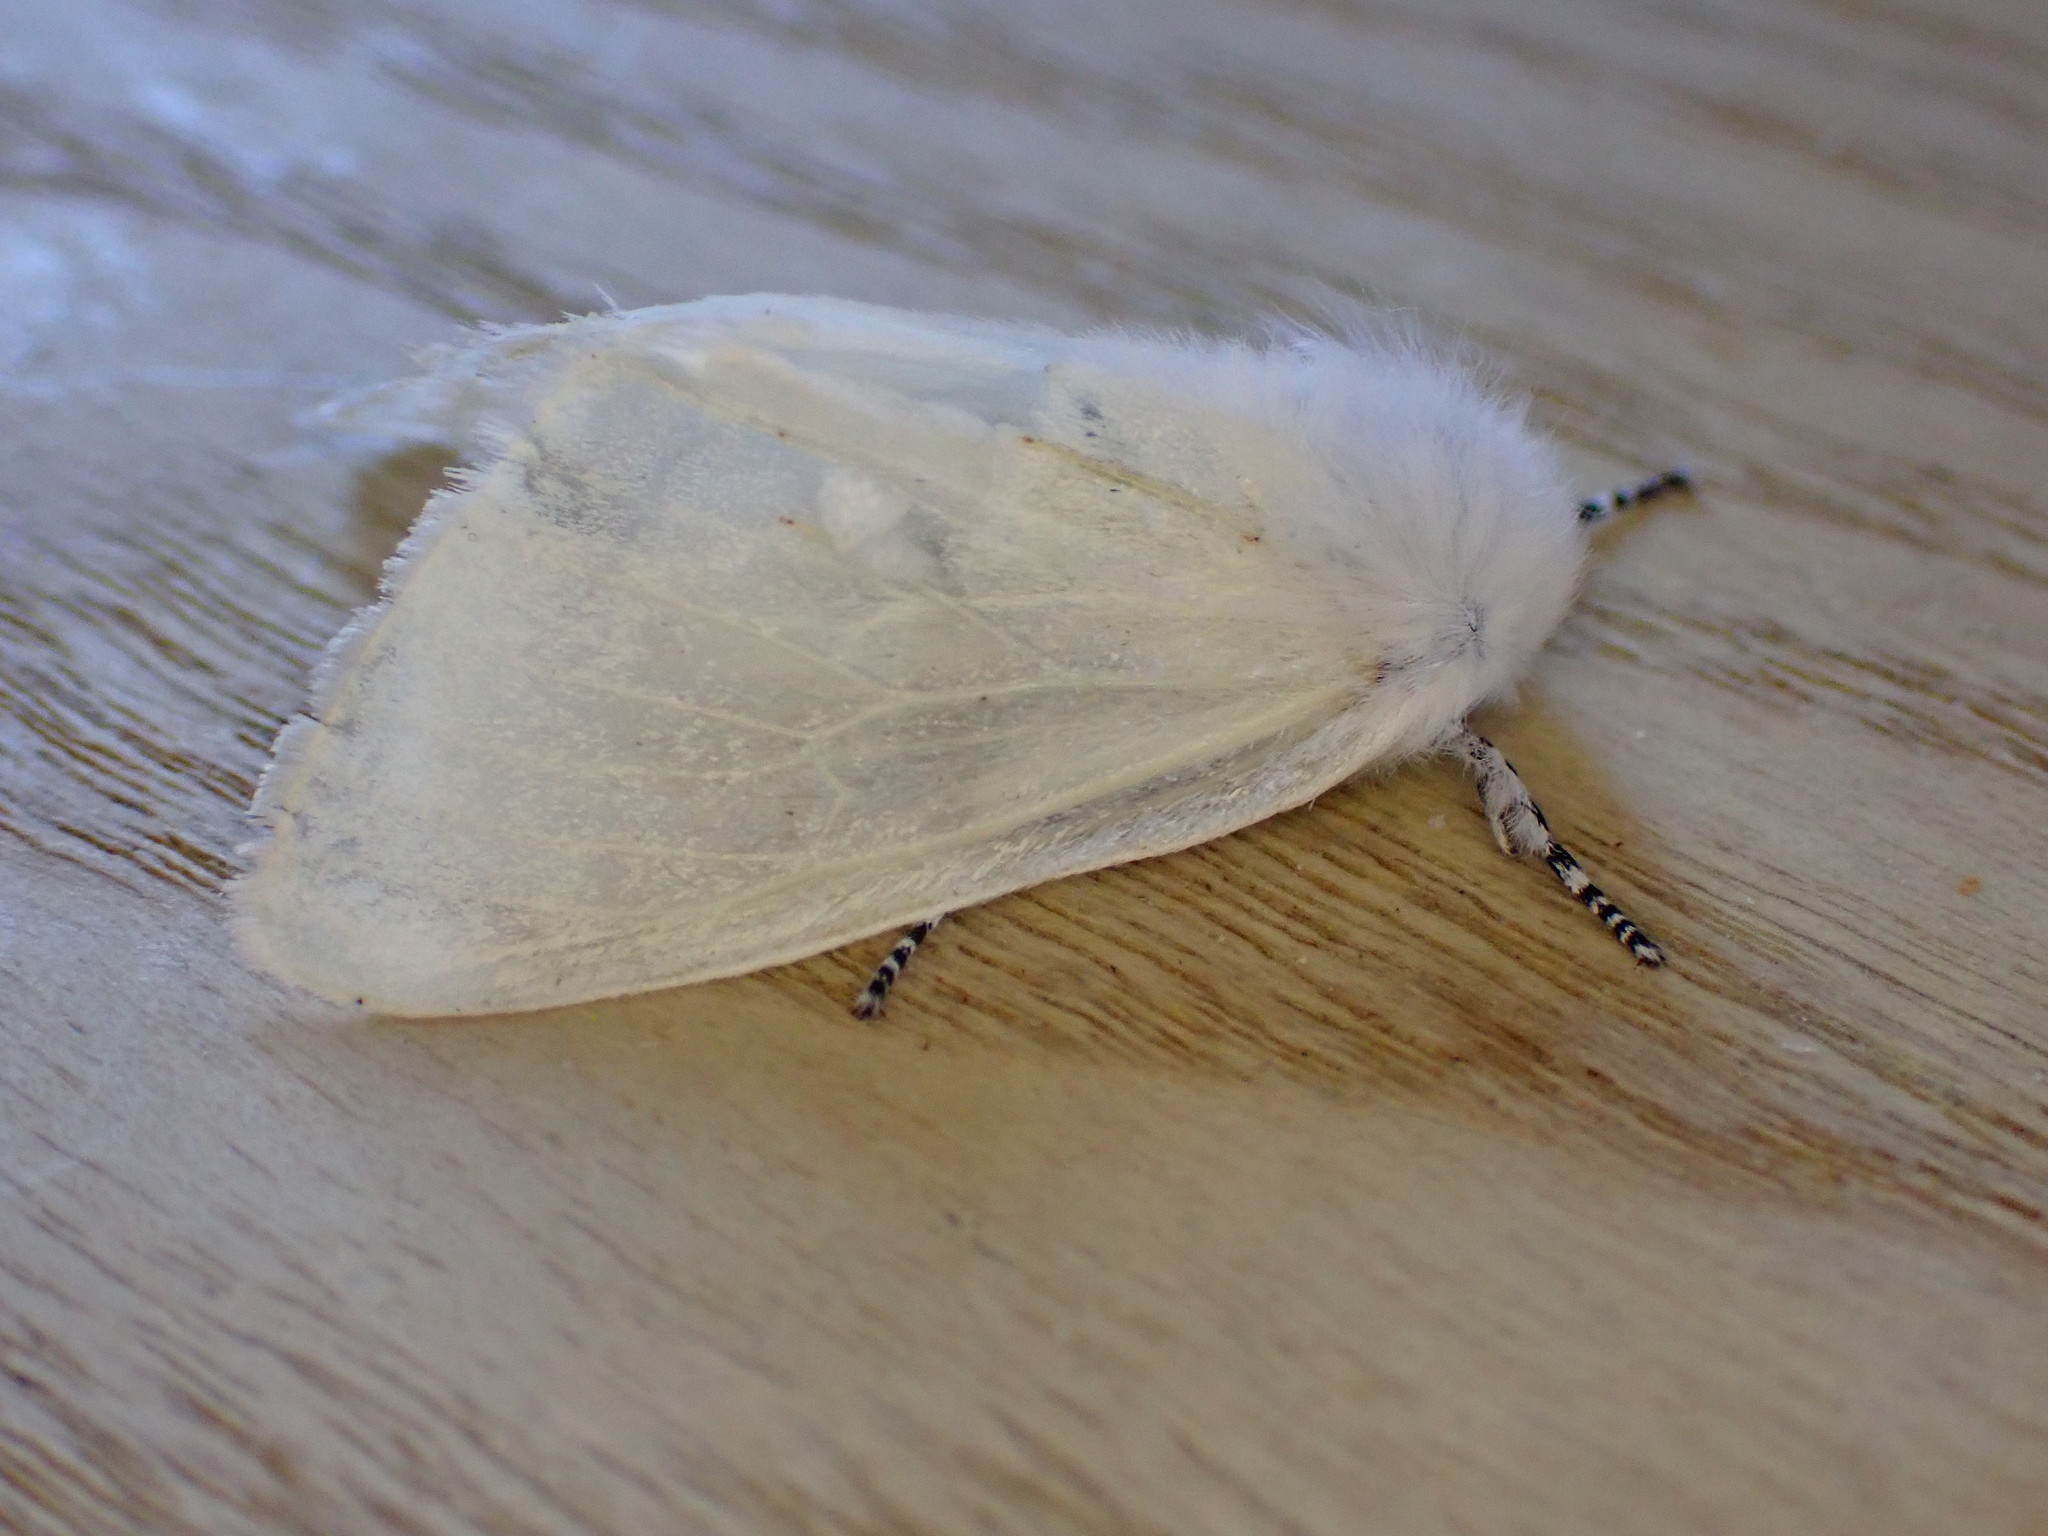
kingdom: Animalia
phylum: Arthropoda
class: Insecta
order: Lepidoptera
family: Erebidae
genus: Leucoma
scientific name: Leucoma salicis
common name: White satin moth
